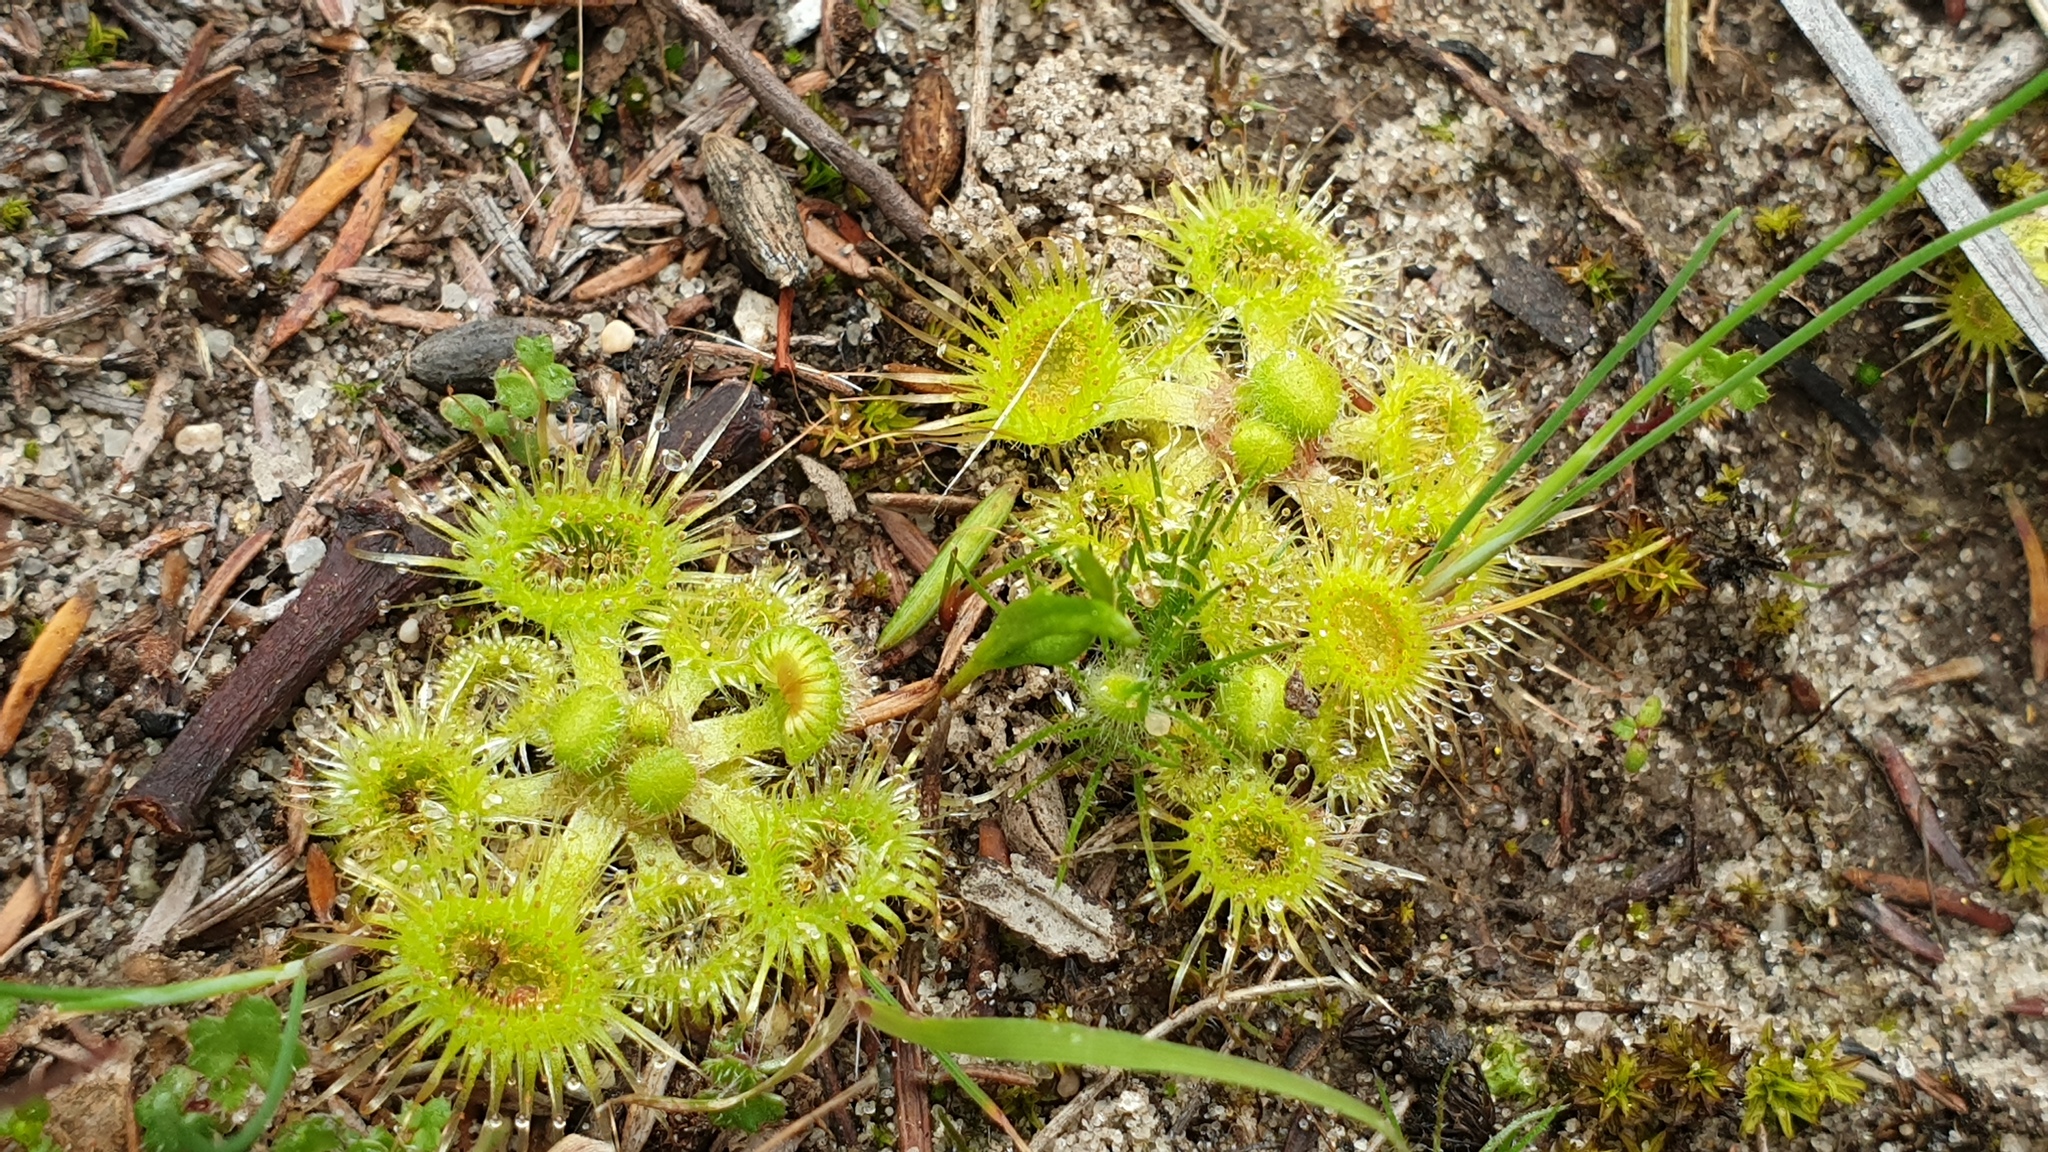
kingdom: Plantae
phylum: Tracheophyta
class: Magnoliopsida
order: Caryophyllales
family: Droseraceae
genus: Drosera
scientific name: Drosera glanduligera
